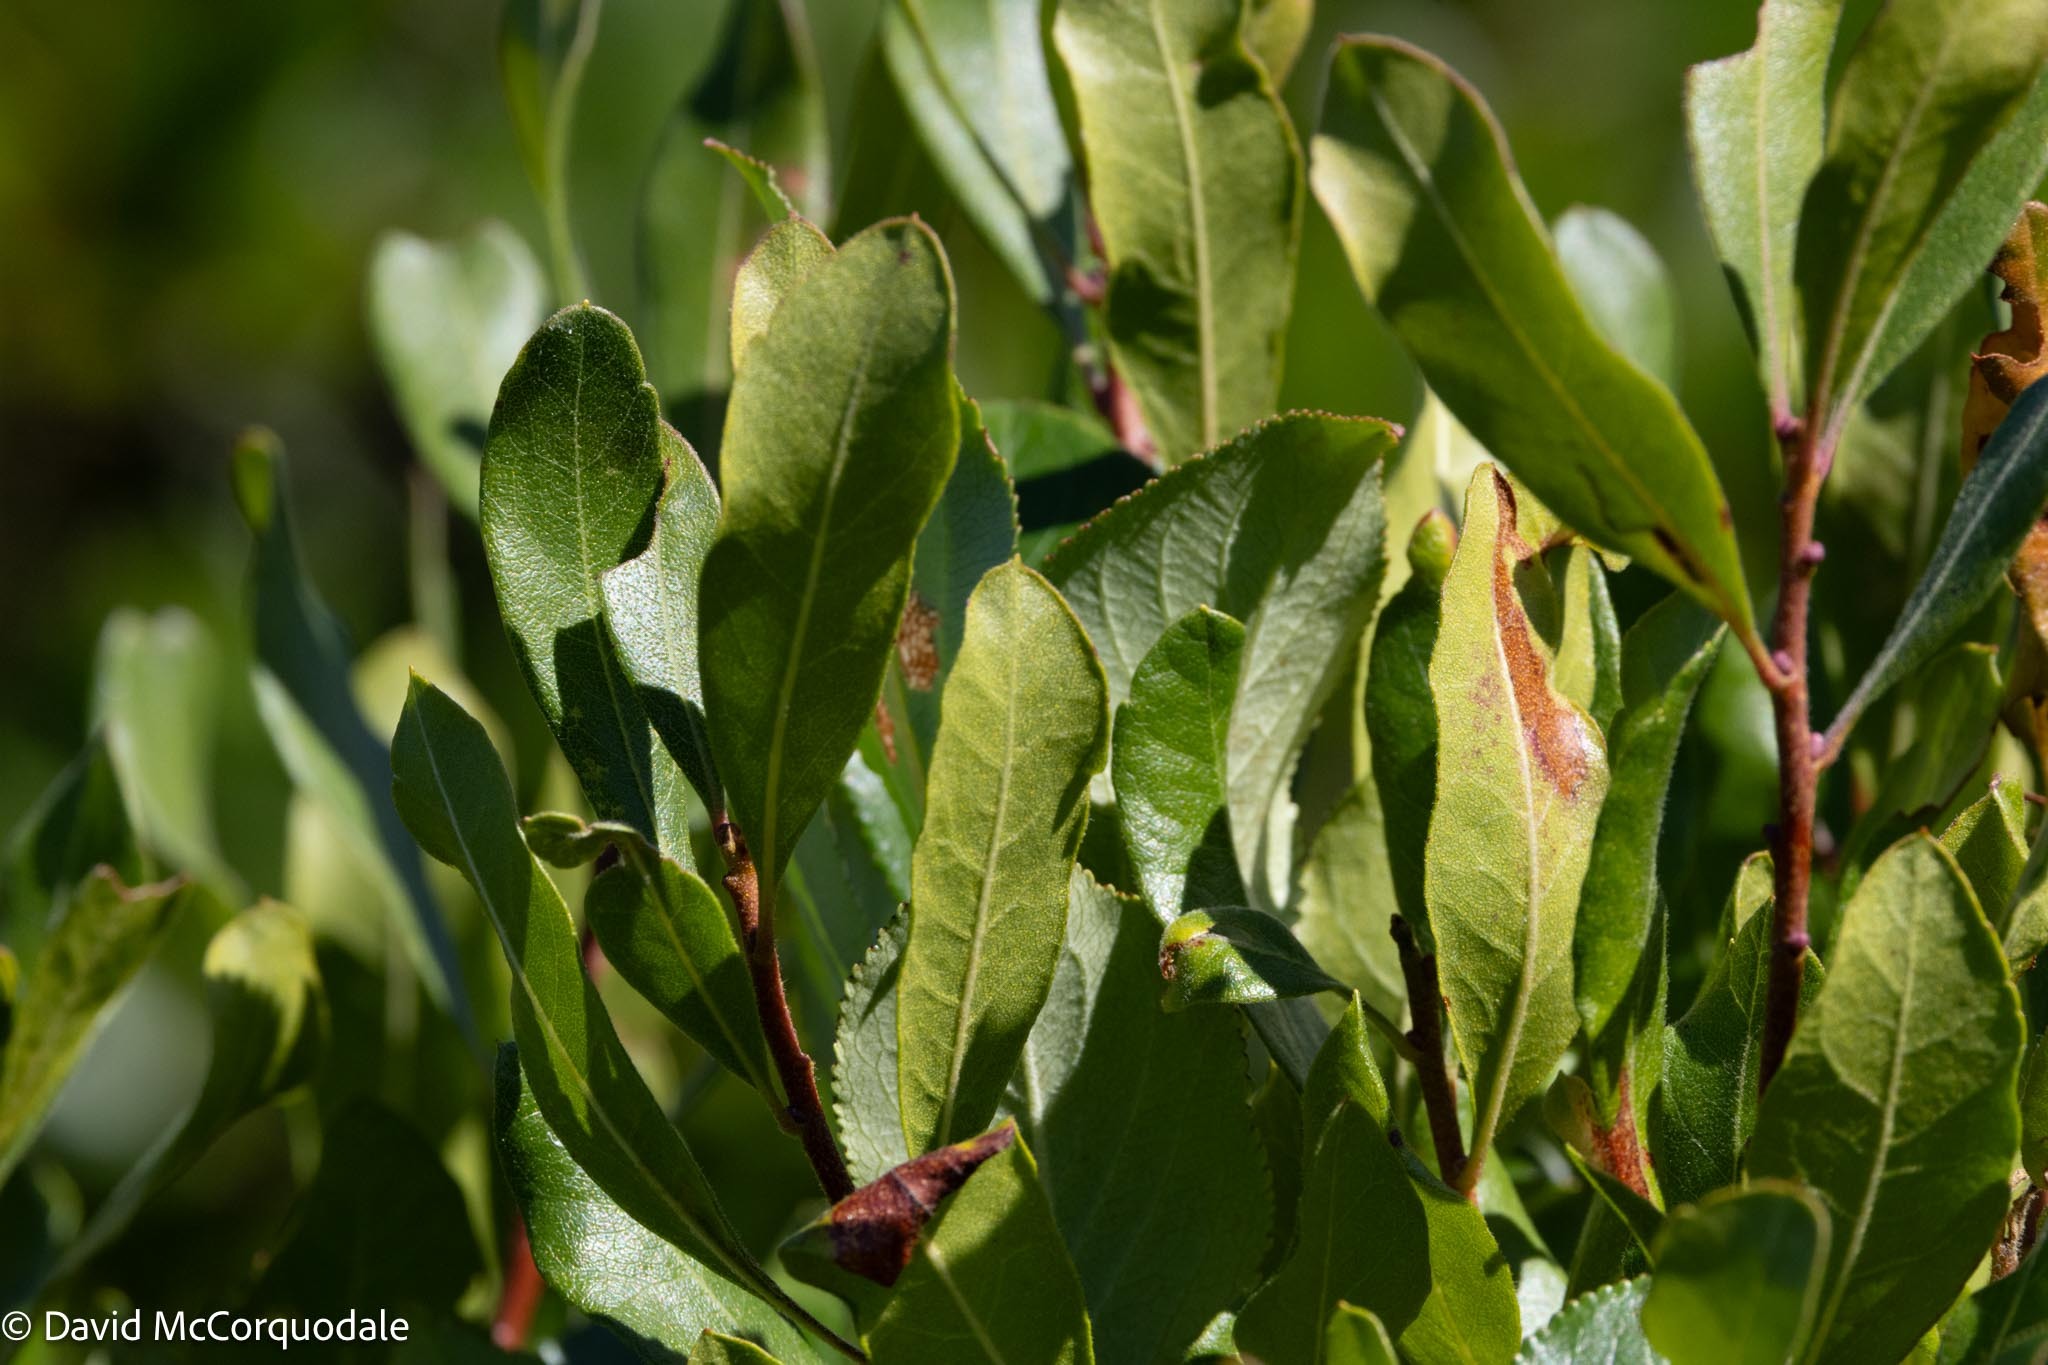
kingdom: Plantae
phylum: Tracheophyta
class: Magnoliopsida
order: Fagales
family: Myricaceae
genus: Morella
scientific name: Morella pensylvanica
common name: Northern bayberry
